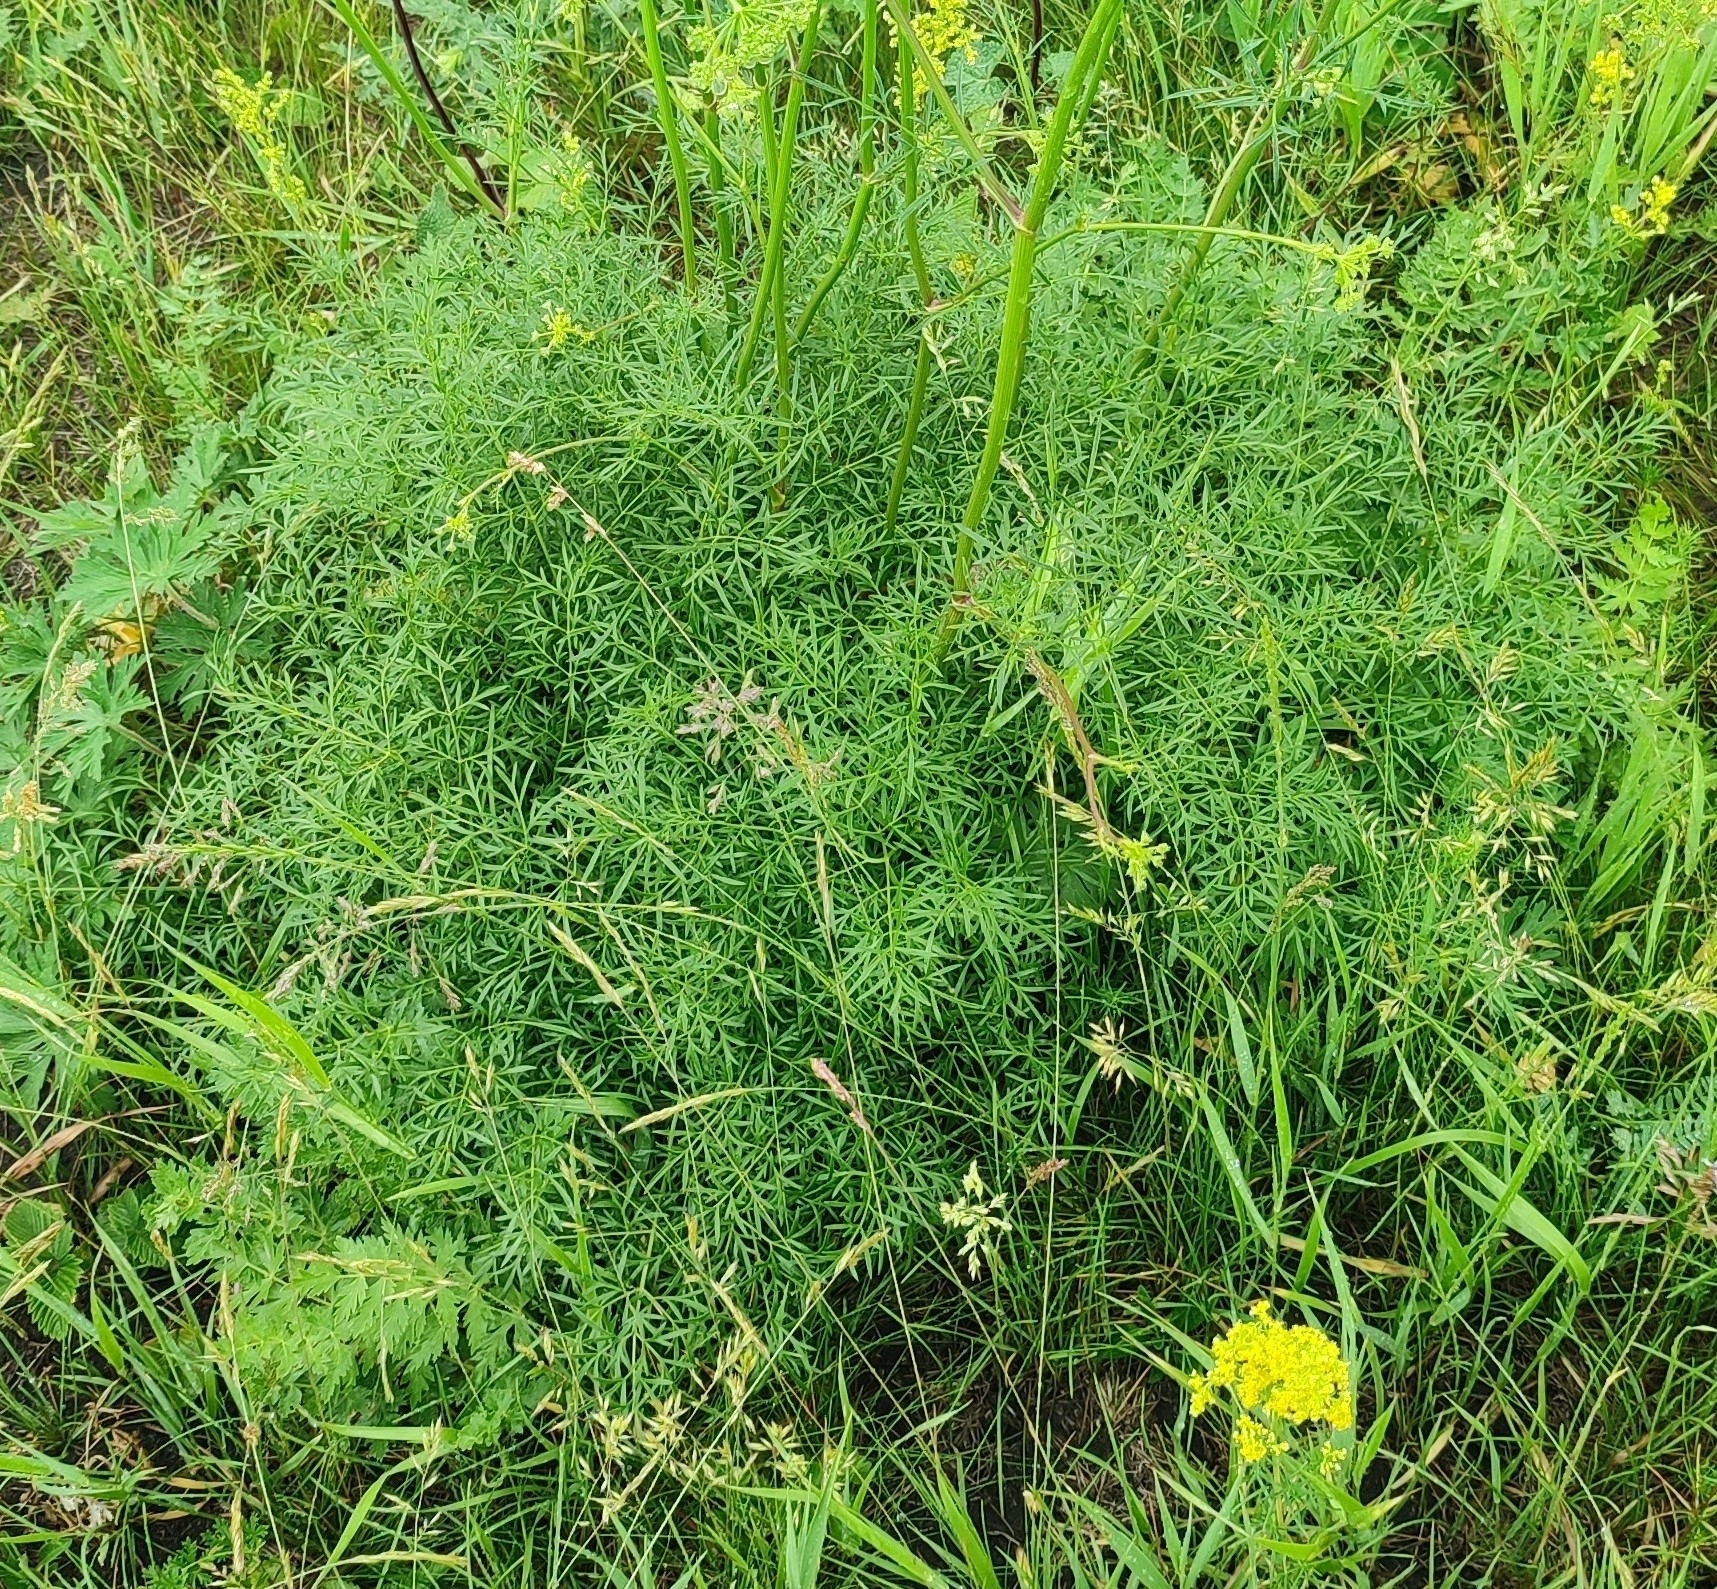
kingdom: Plantae
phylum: Tracheophyta
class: Magnoliopsida
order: Apiales
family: Apiaceae
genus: Silaum
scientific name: Silaum silaus
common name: Pepper-saxifrage
